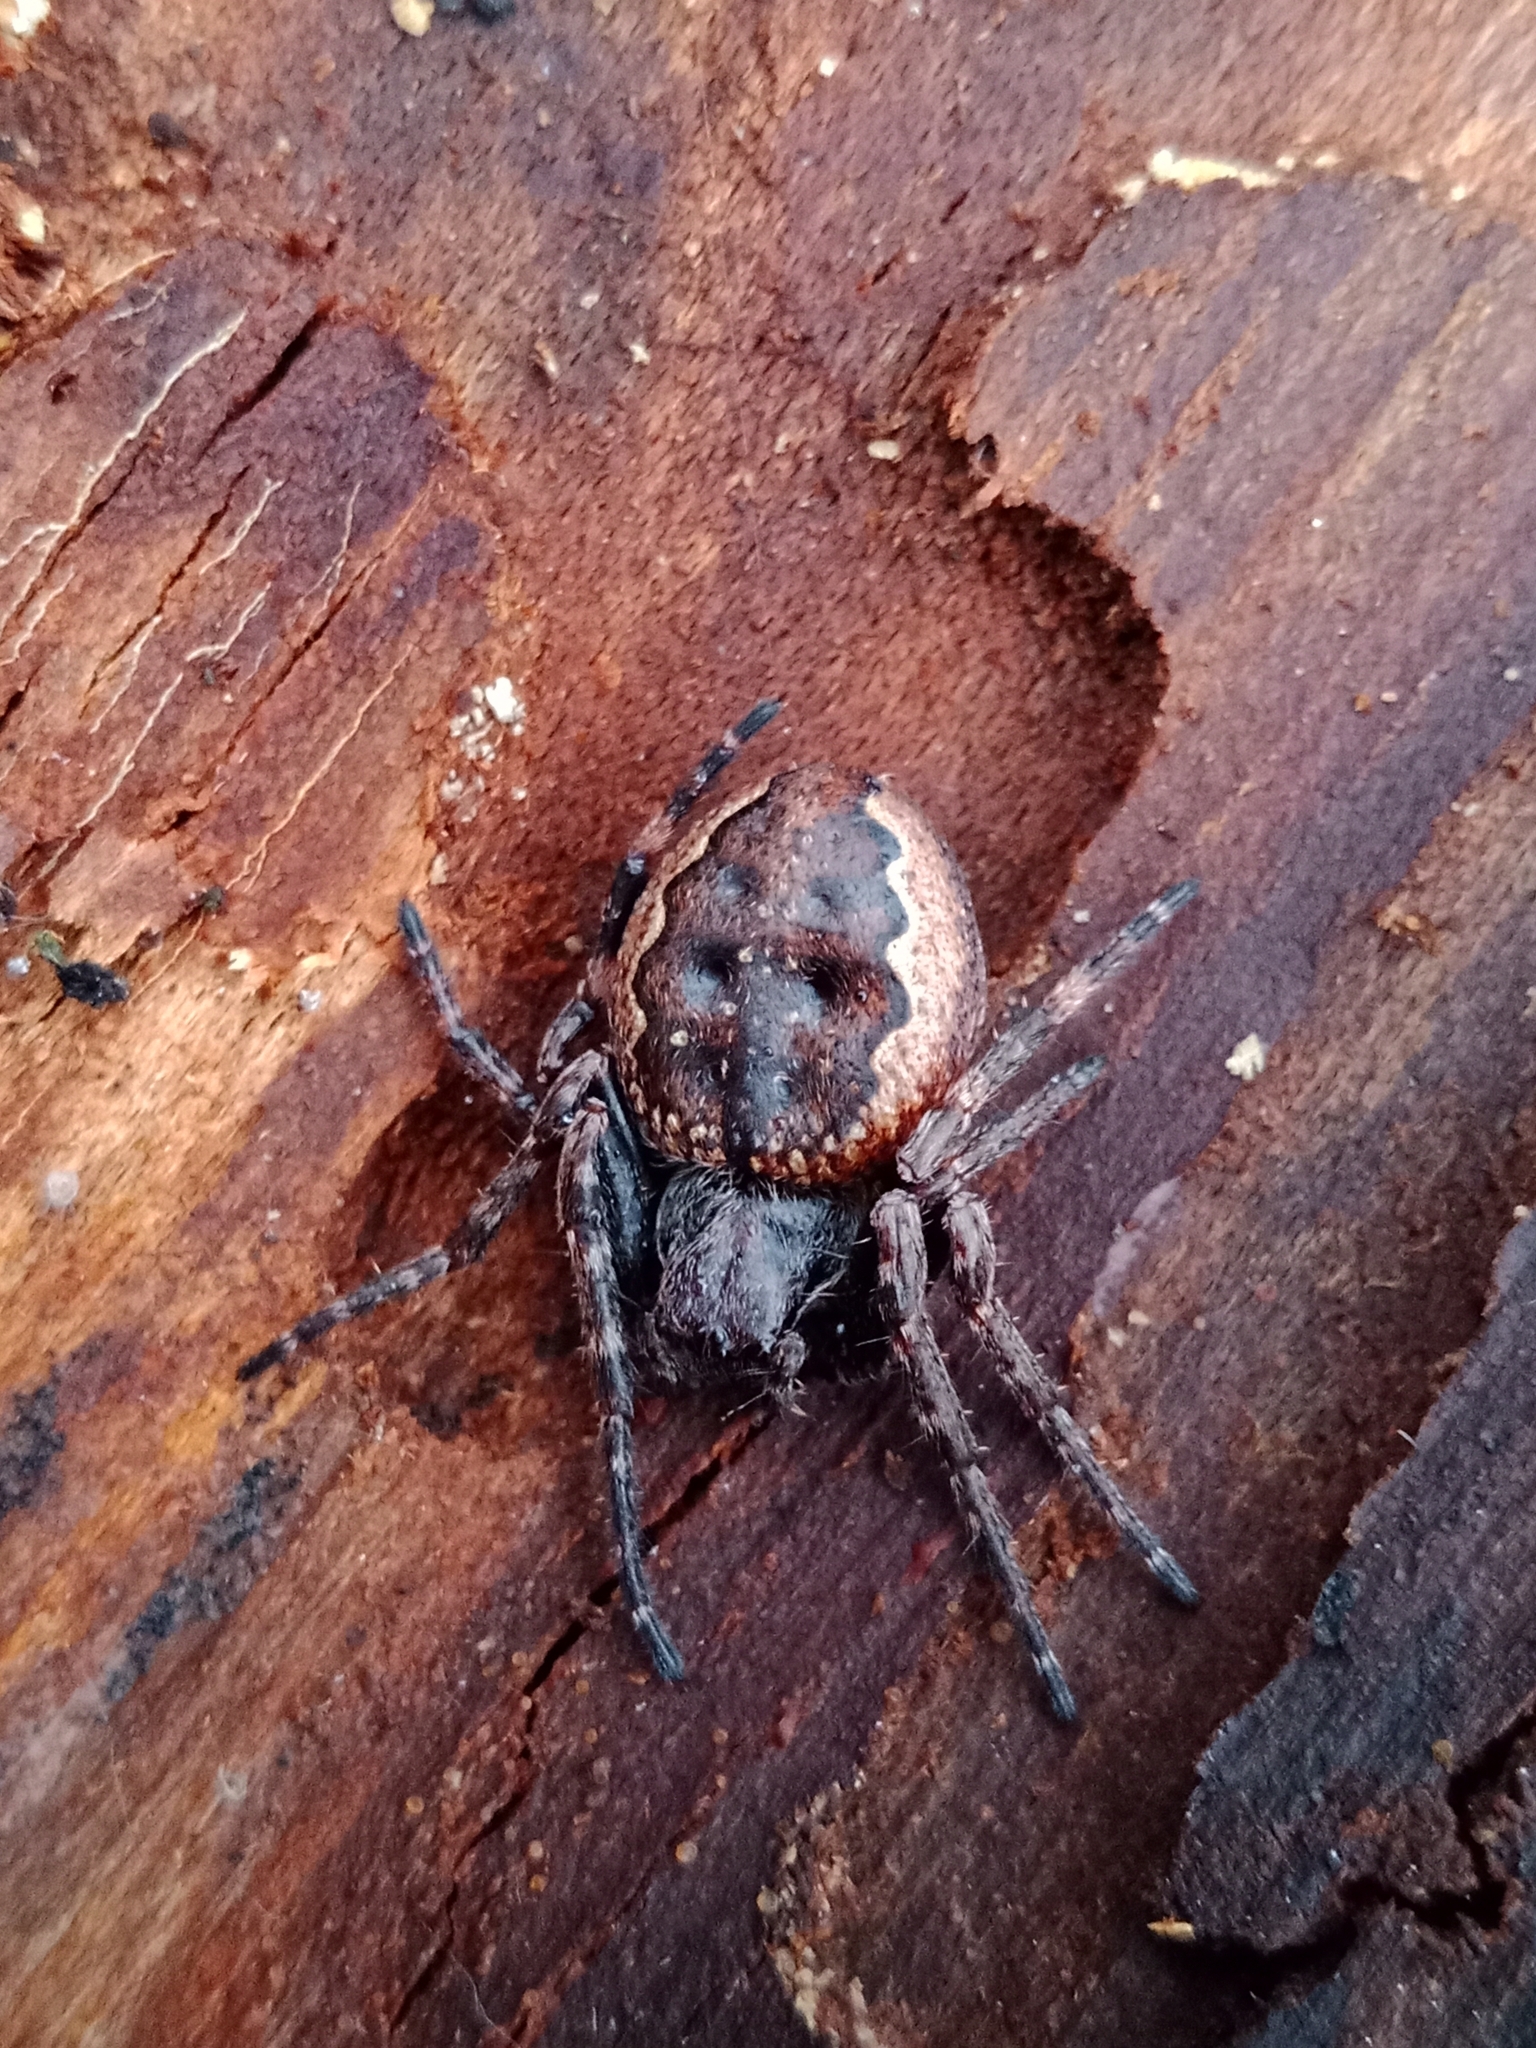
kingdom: Animalia
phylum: Arthropoda
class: Arachnida
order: Araneae
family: Araneidae
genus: Nuctenea
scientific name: Nuctenea umbratica
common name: Toad spider
